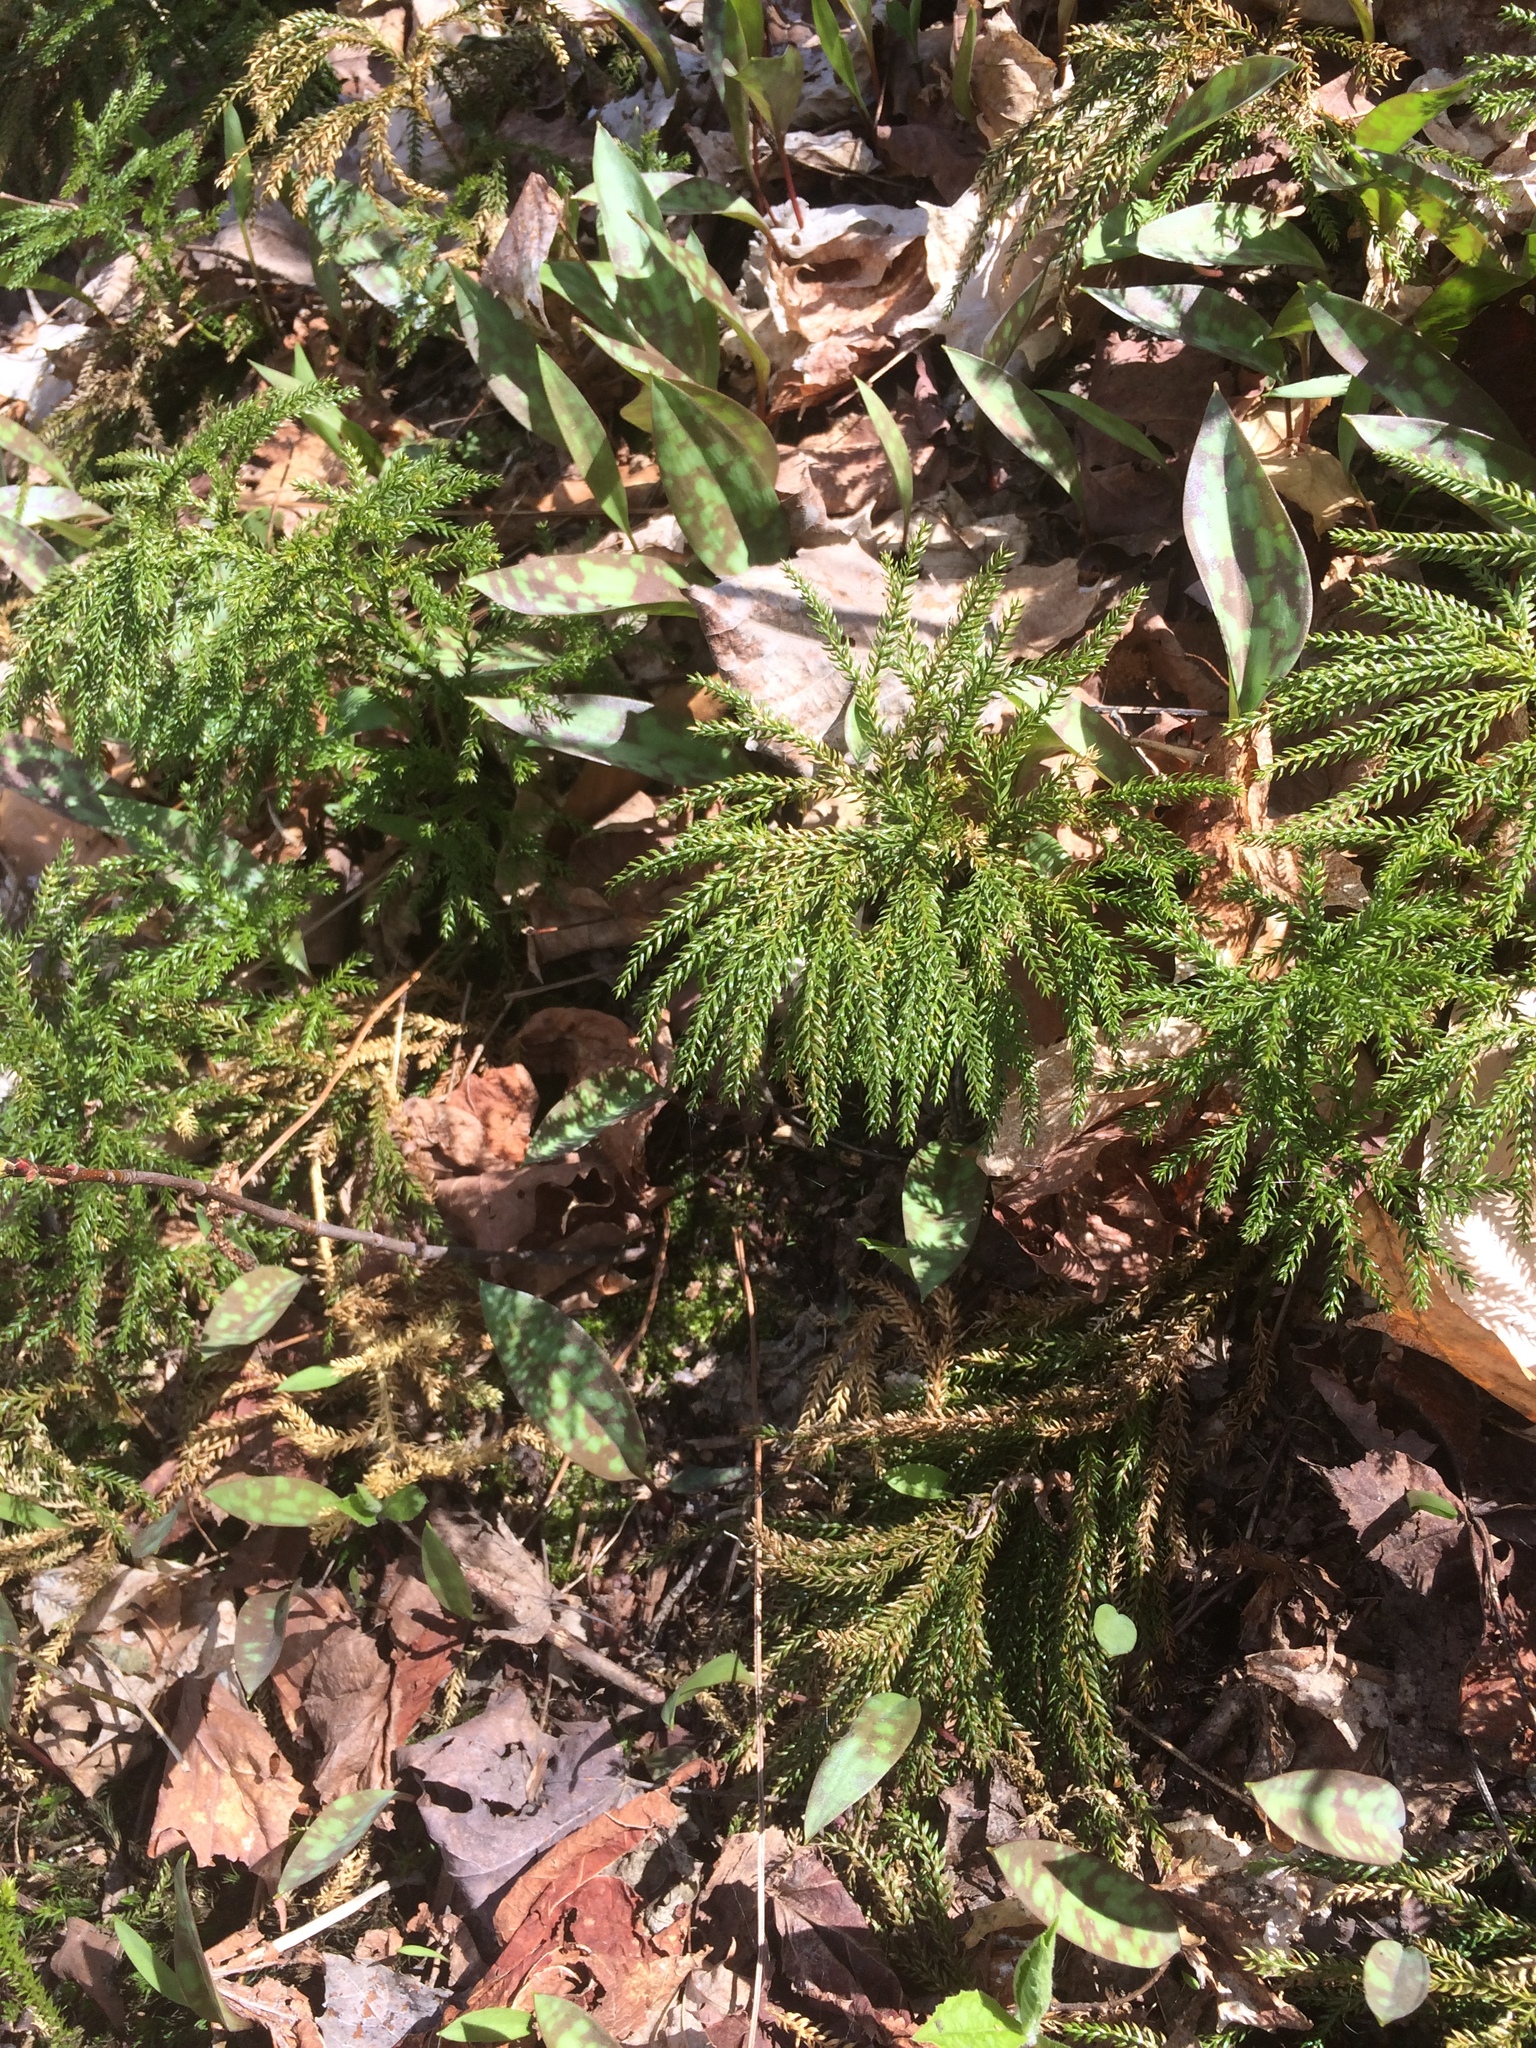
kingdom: Plantae
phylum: Tracheophyta
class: Lycopodiopsida
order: Lycopodiales
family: Lycopodiaceae
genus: Dendrolycopodium
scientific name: Dendrolycopodium dendroideum
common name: Northern tree-clubmoss
